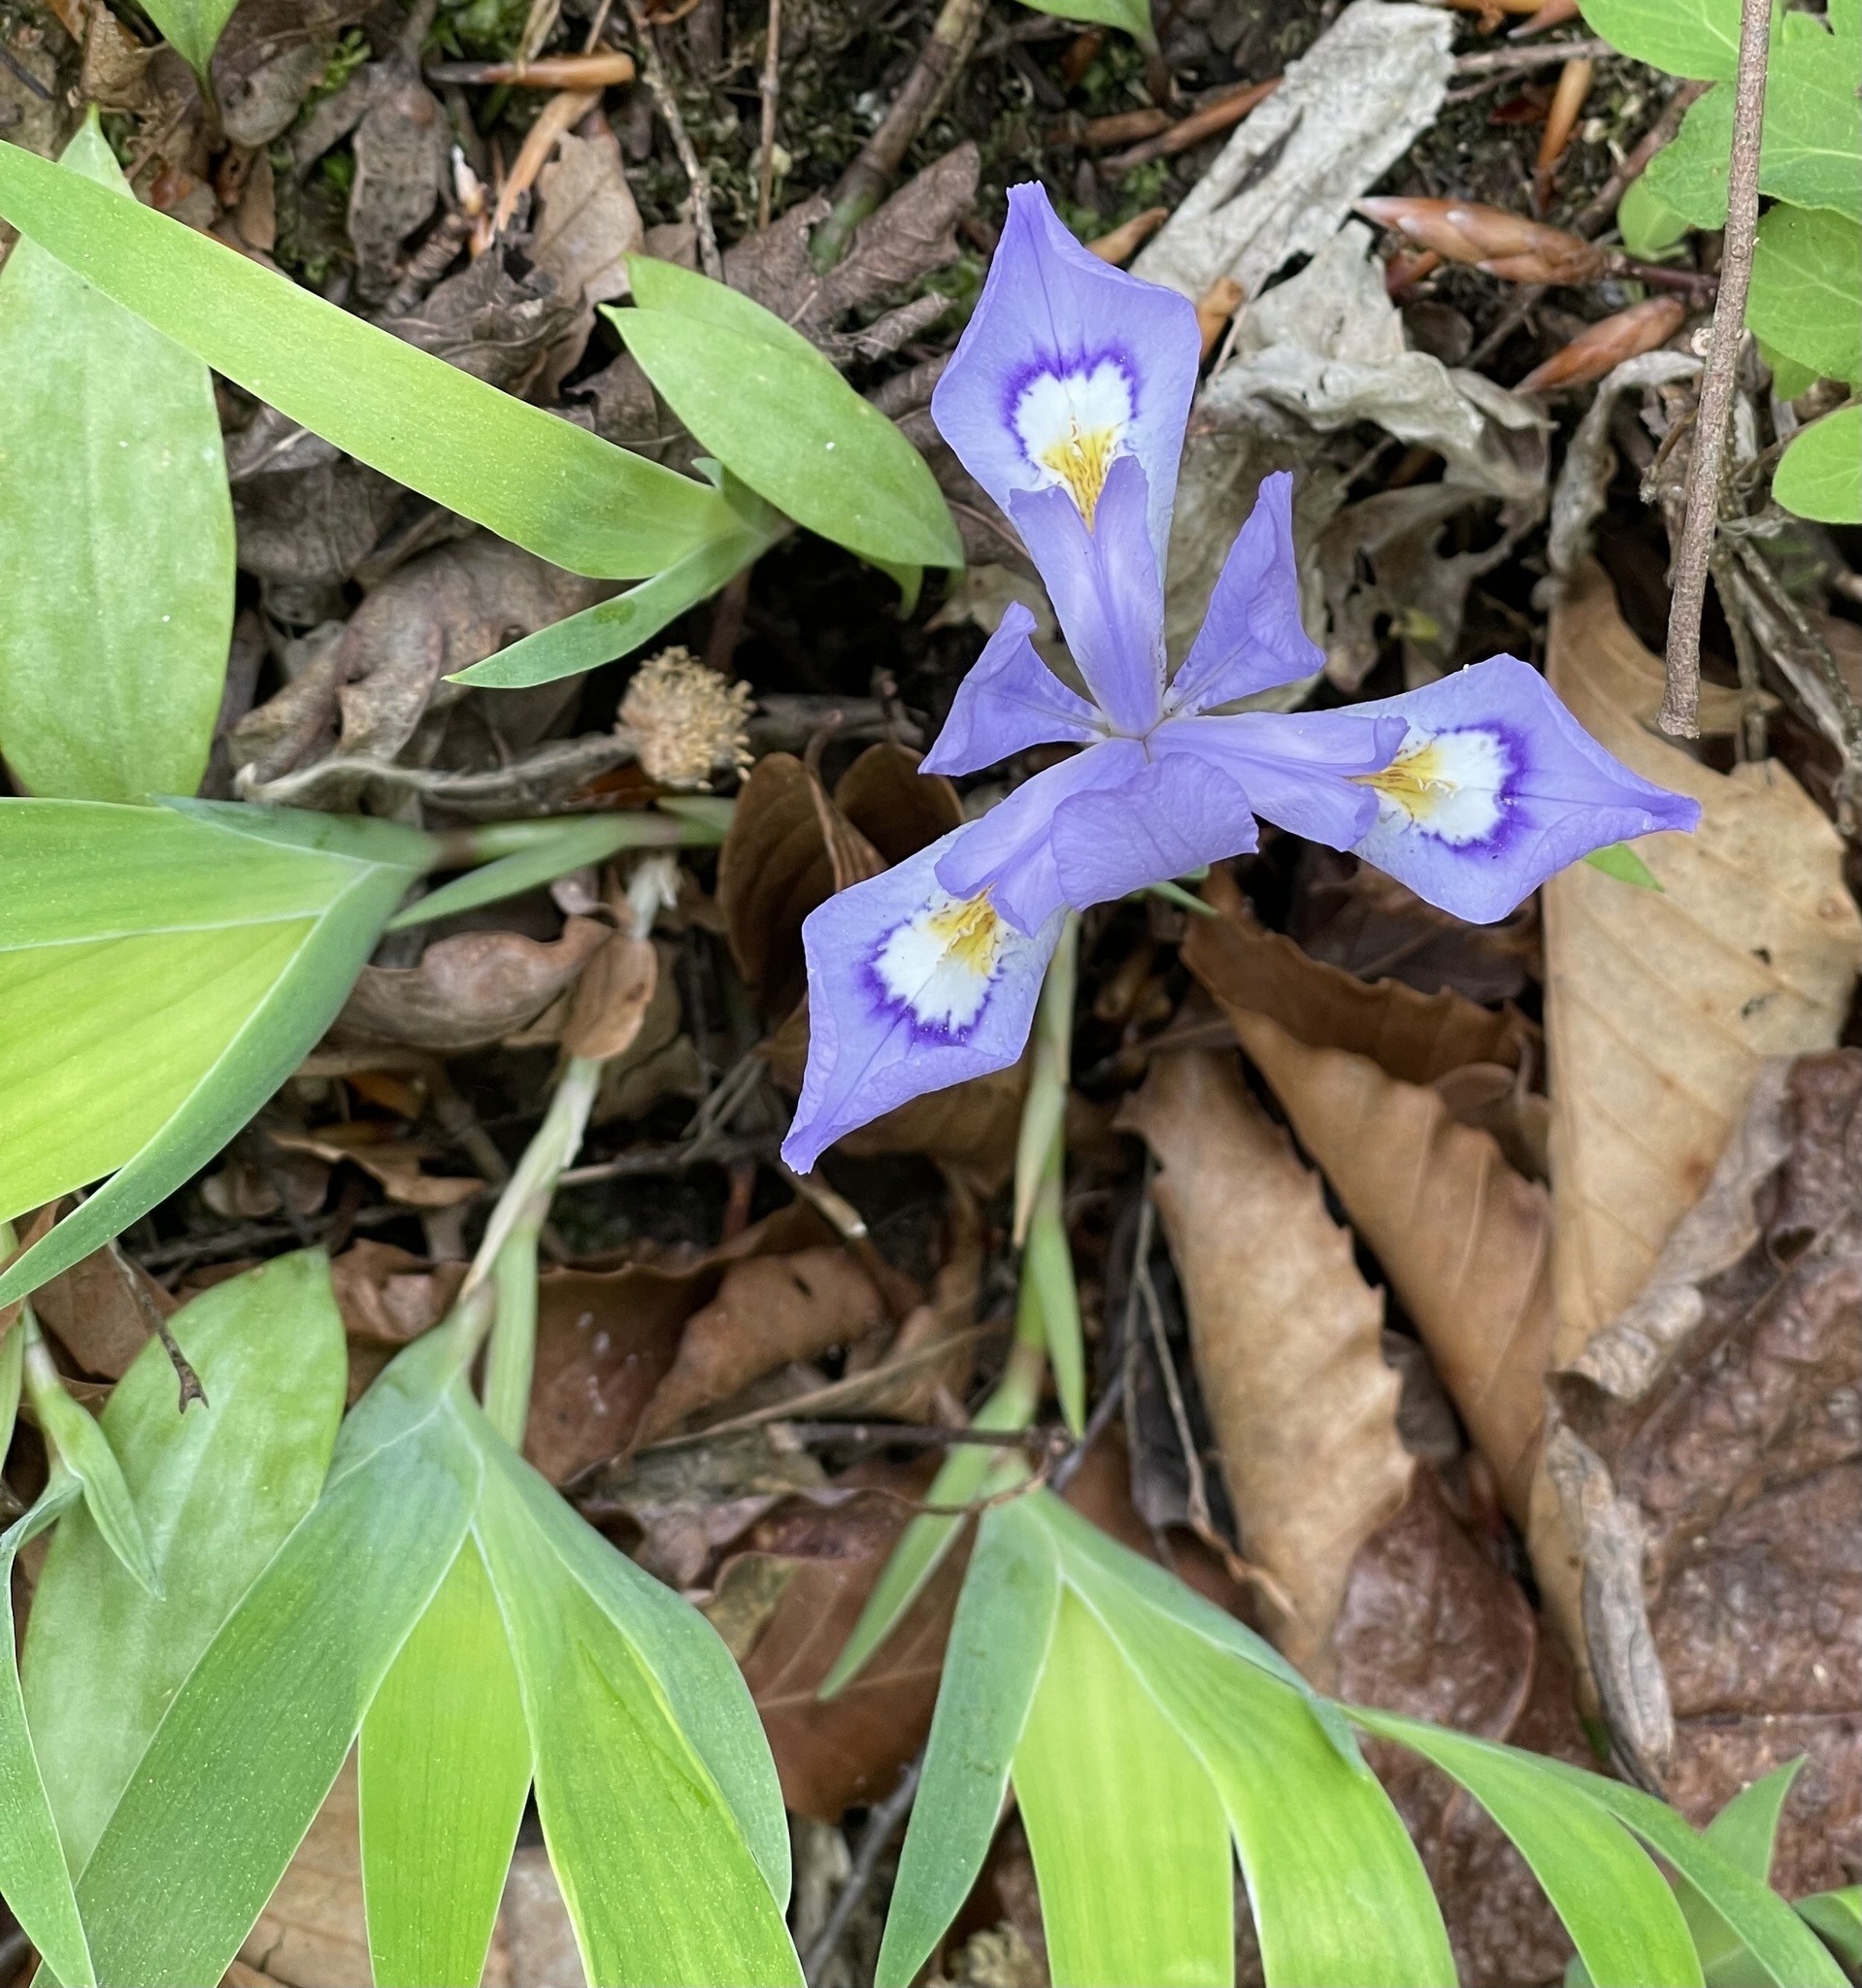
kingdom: Plantae
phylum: Tracheophyta
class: Liliopsida
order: Asparagales
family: Iridaceae
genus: Iris
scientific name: Iris cristata
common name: Crested iris
